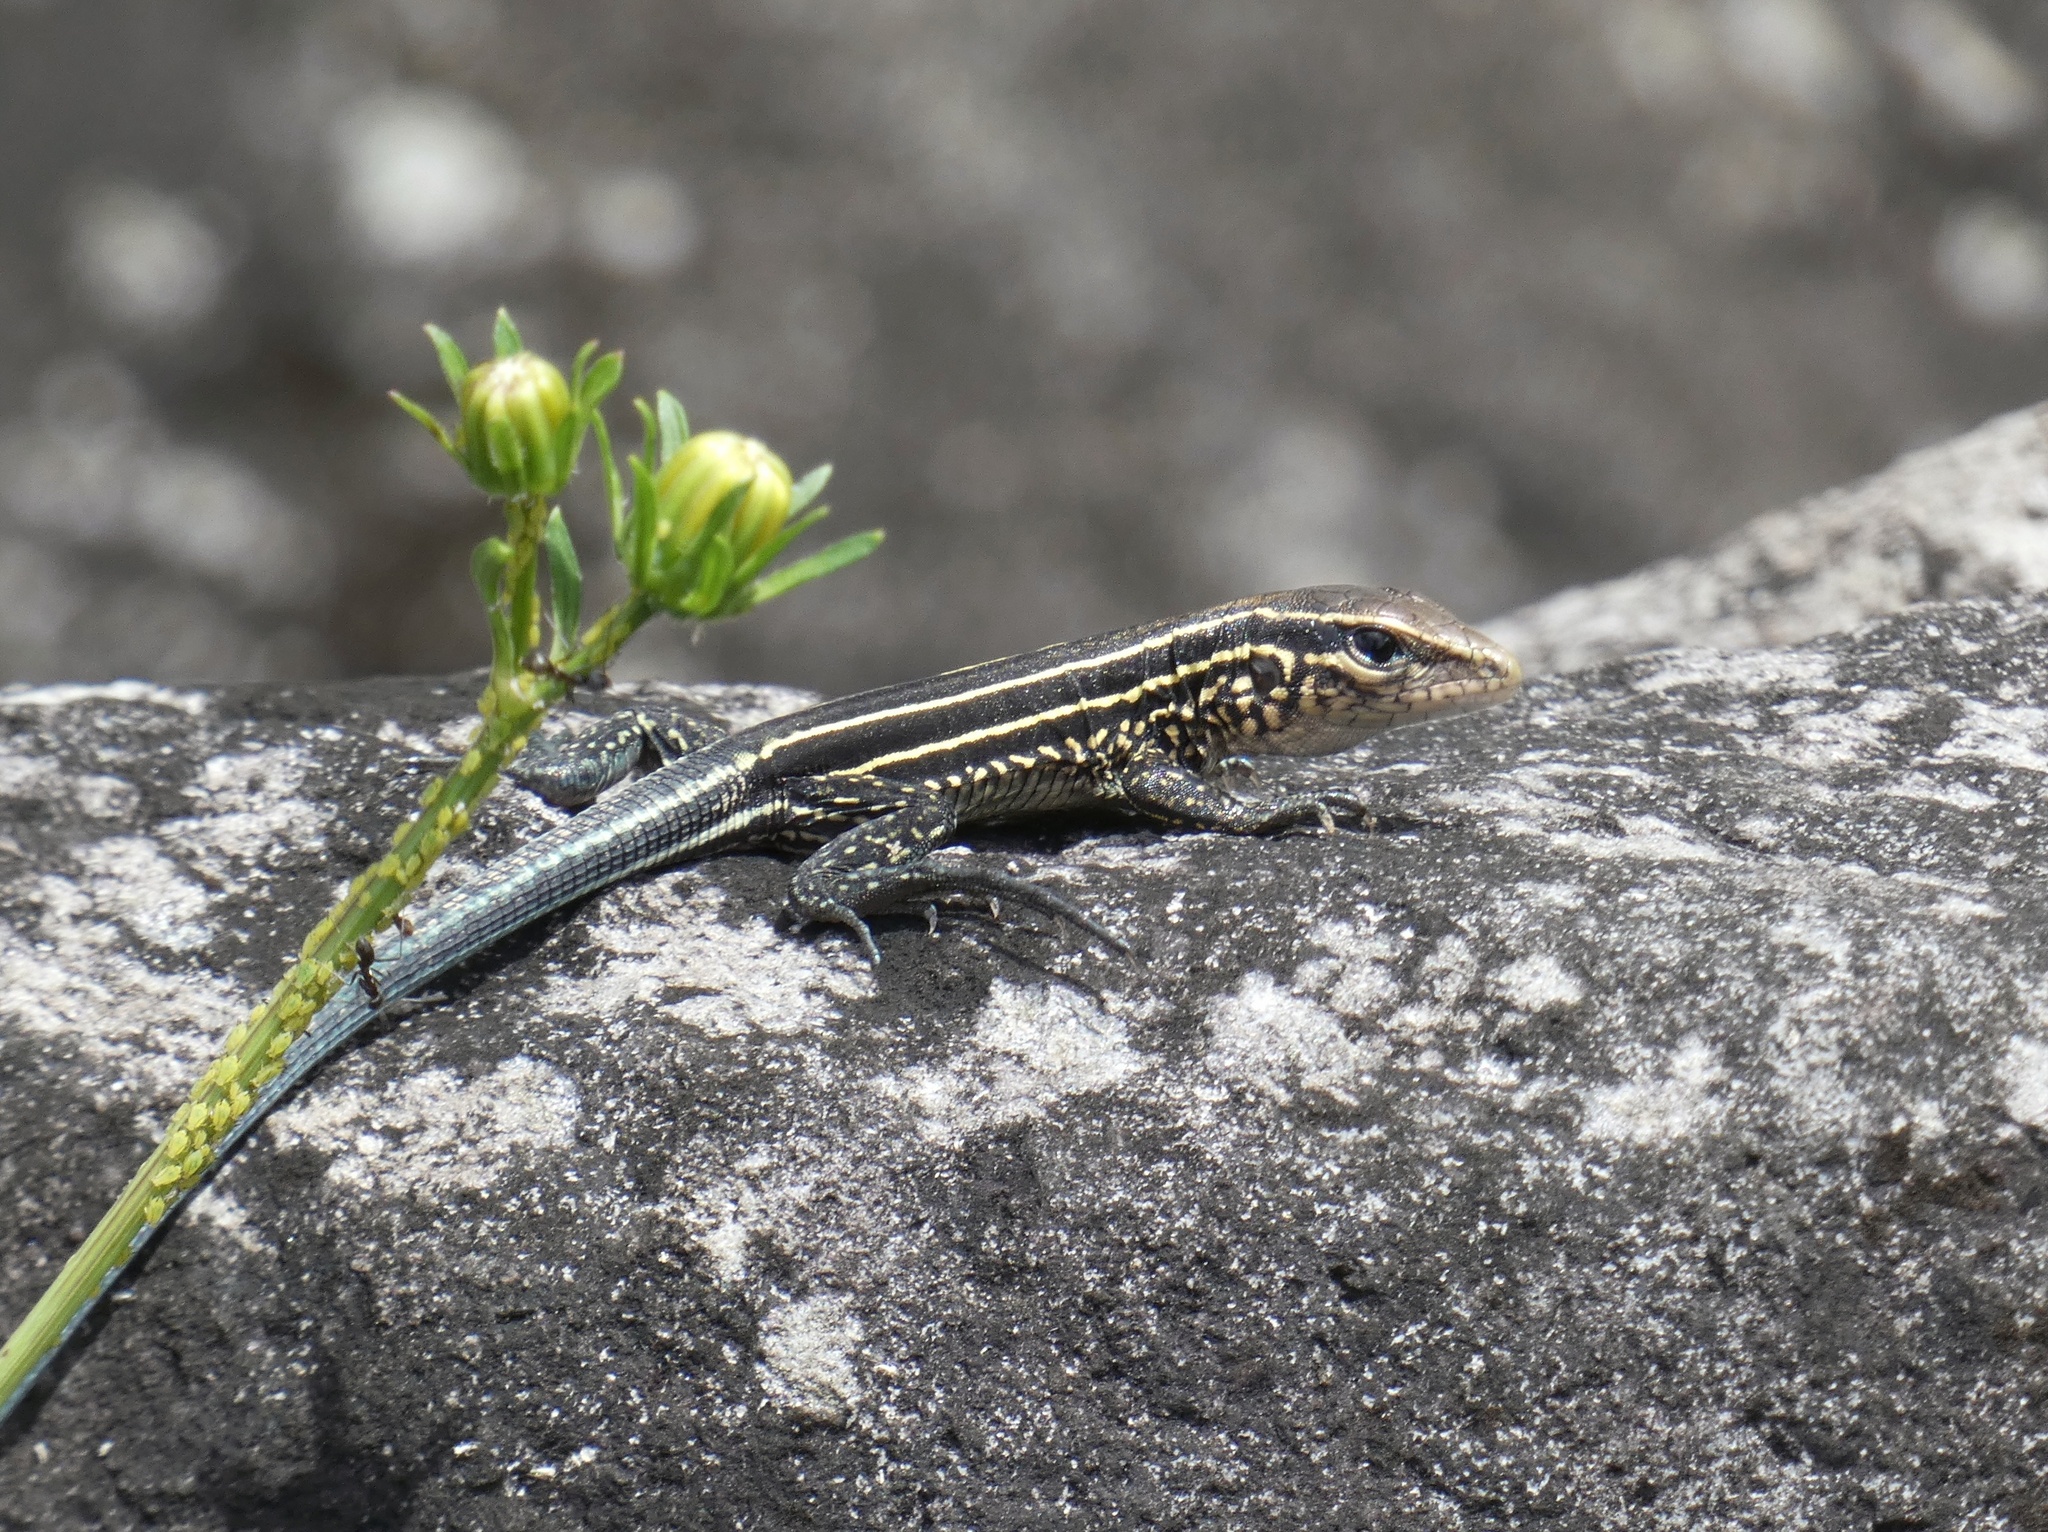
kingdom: Animalia
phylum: Chordata
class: Squamata
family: Teiidae
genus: Holcosus
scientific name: Holcosus quadrilineatus
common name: Four-lined ameiva
